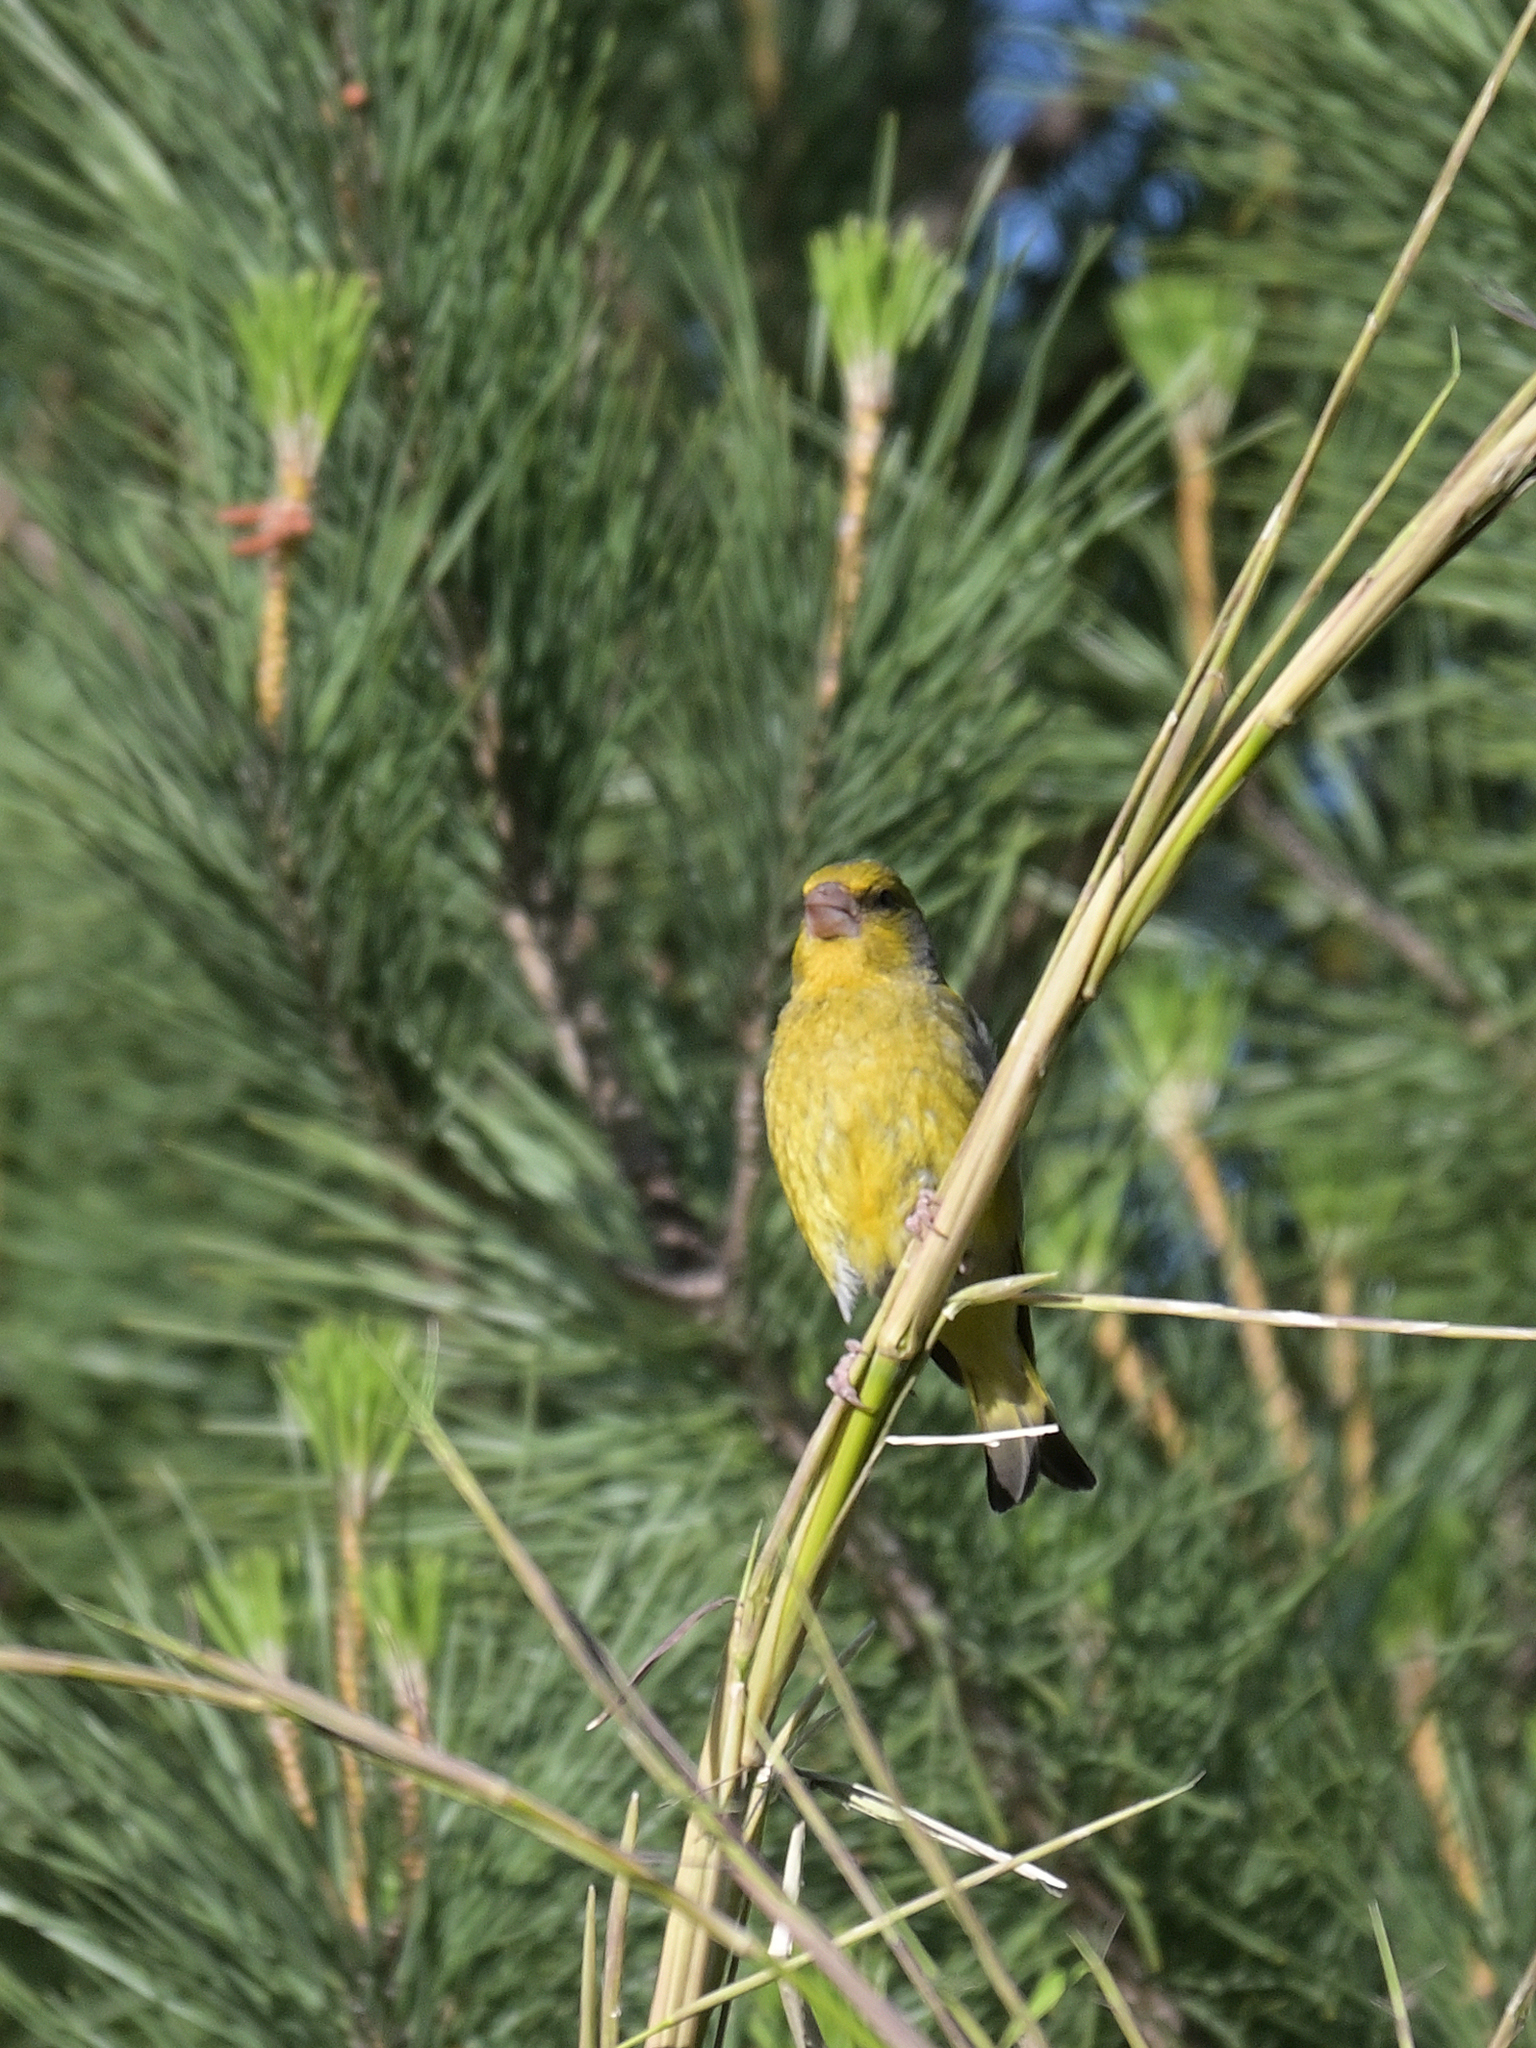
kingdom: Plantae
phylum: Tracheophyta
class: Liliopsida
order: Poales
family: Poaceae
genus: Chloris
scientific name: Chloris chloris
